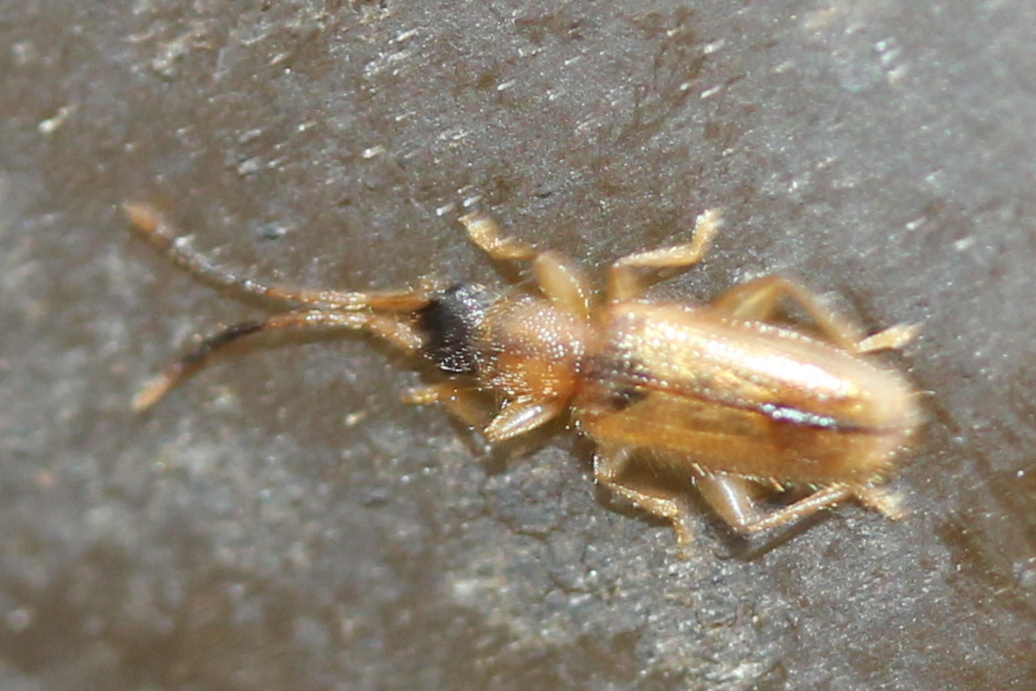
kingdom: Animalia
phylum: Arthropoda
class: Insecta
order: Coleoptera
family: Silvanidae
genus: Telephanus
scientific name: Telephanus velox
